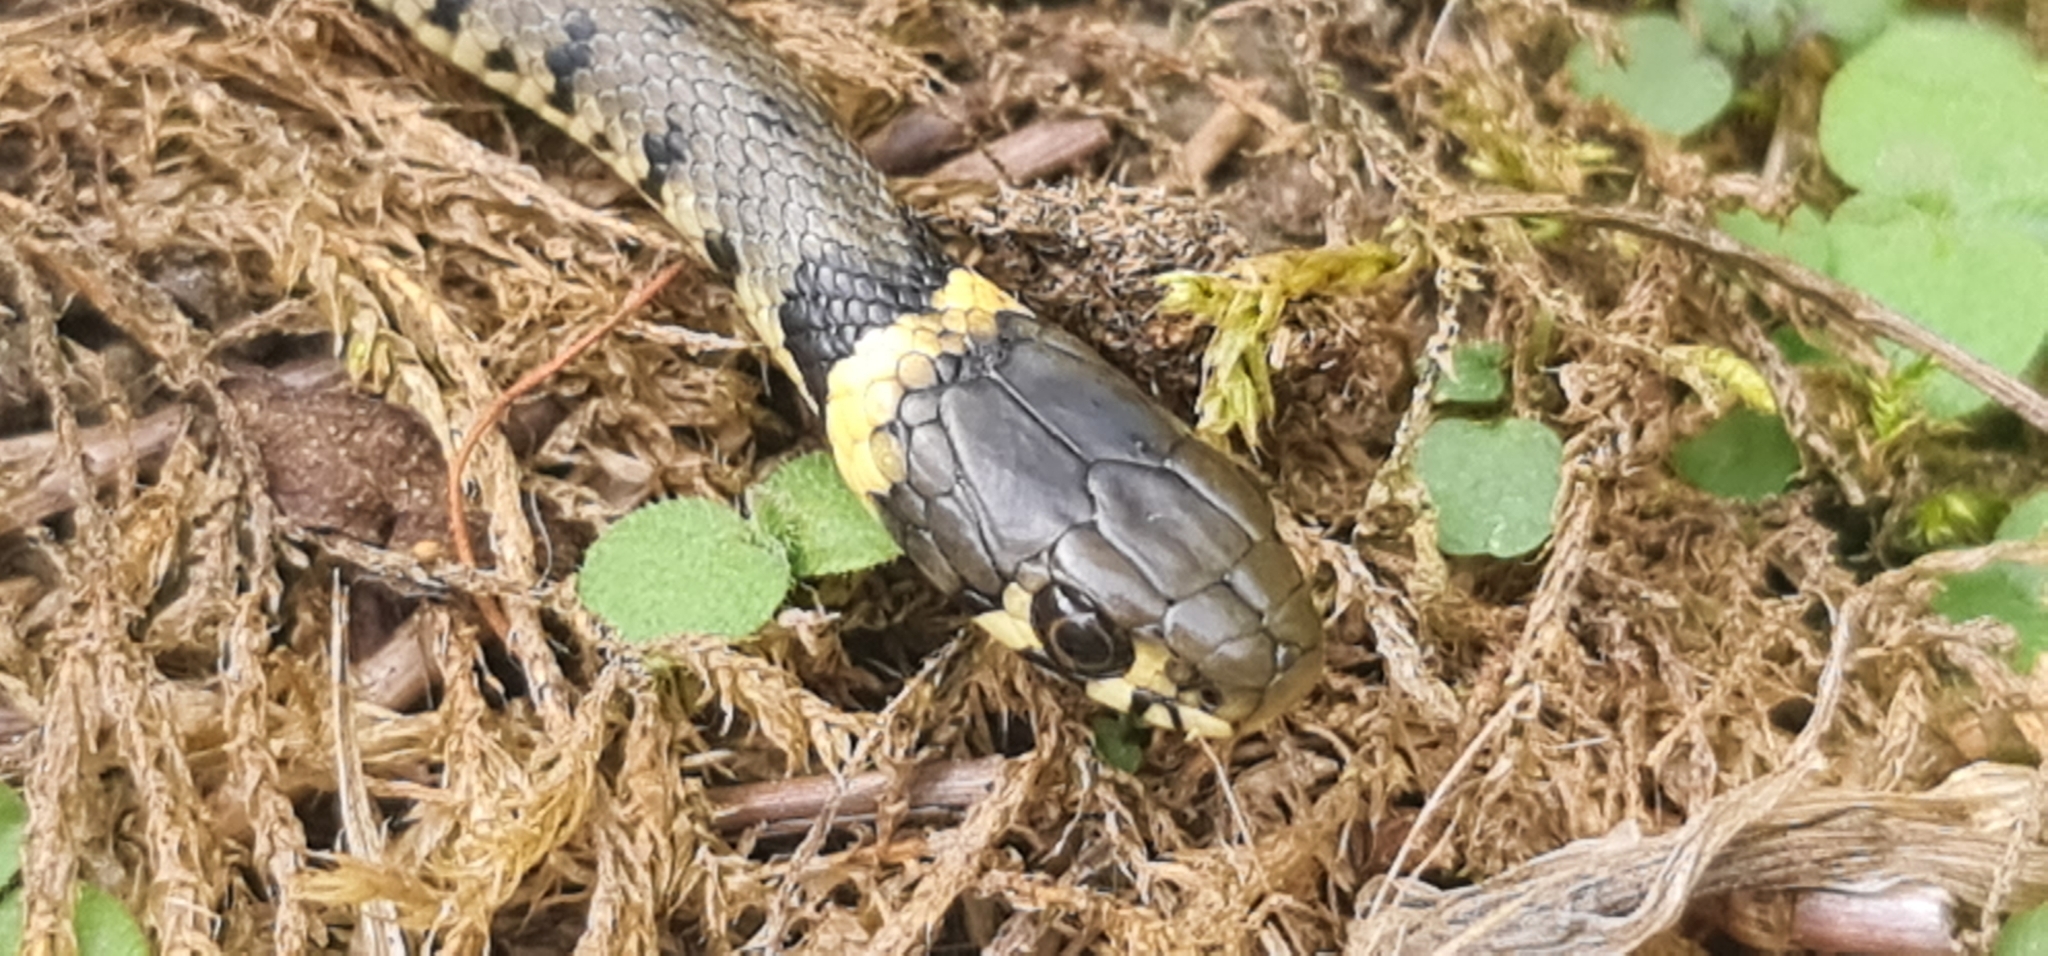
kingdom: Animalia
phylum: Chordata
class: Squamata
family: Colubridae
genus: Natrix
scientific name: Natrix helvetica
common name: Banded grass snake
